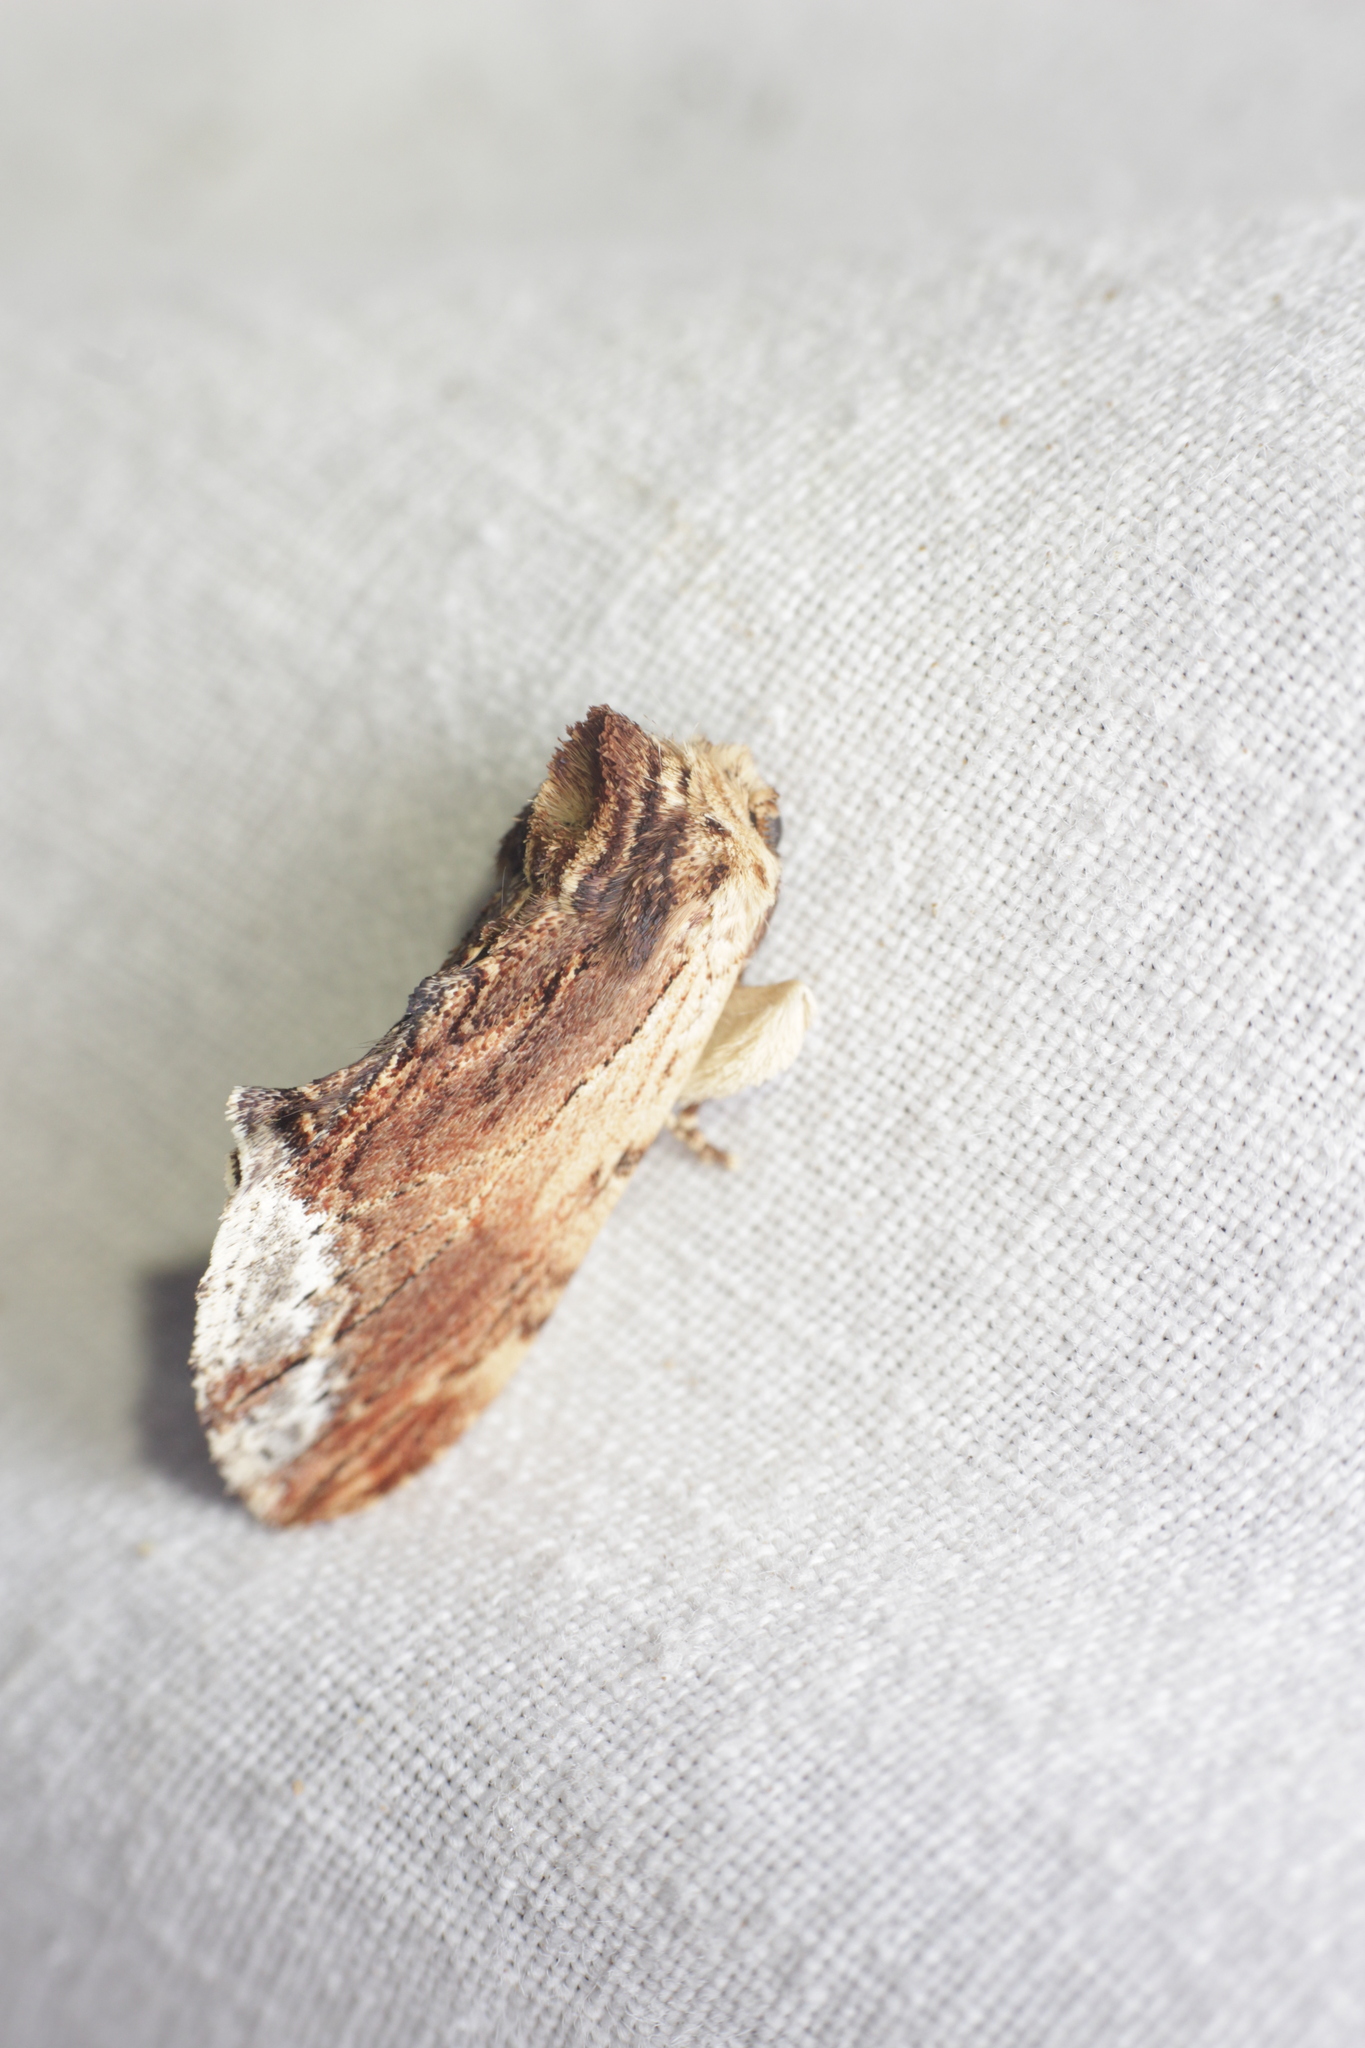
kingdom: Animalia
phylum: Arthropoda
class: Insecta
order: Lepidoptera
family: Notodontidae
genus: Ptilodon
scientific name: Ptilodon cucullina
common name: Maple prominent
